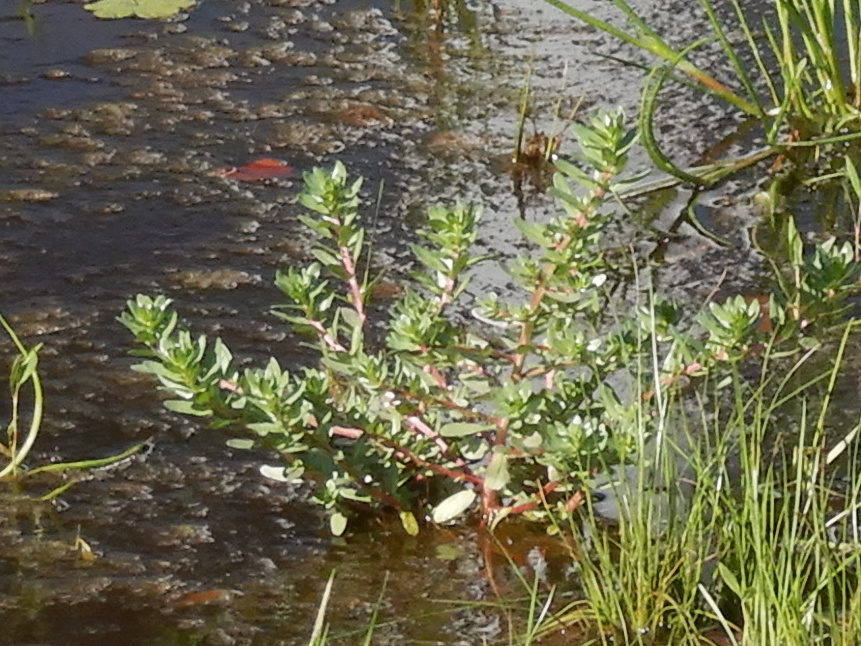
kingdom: Plantae
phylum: Tracheophyta
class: Magnoliopsida
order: Caryophyllales
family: Portulacaceae
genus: Portulaca
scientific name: Portulaca oleracea
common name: Common purslane
